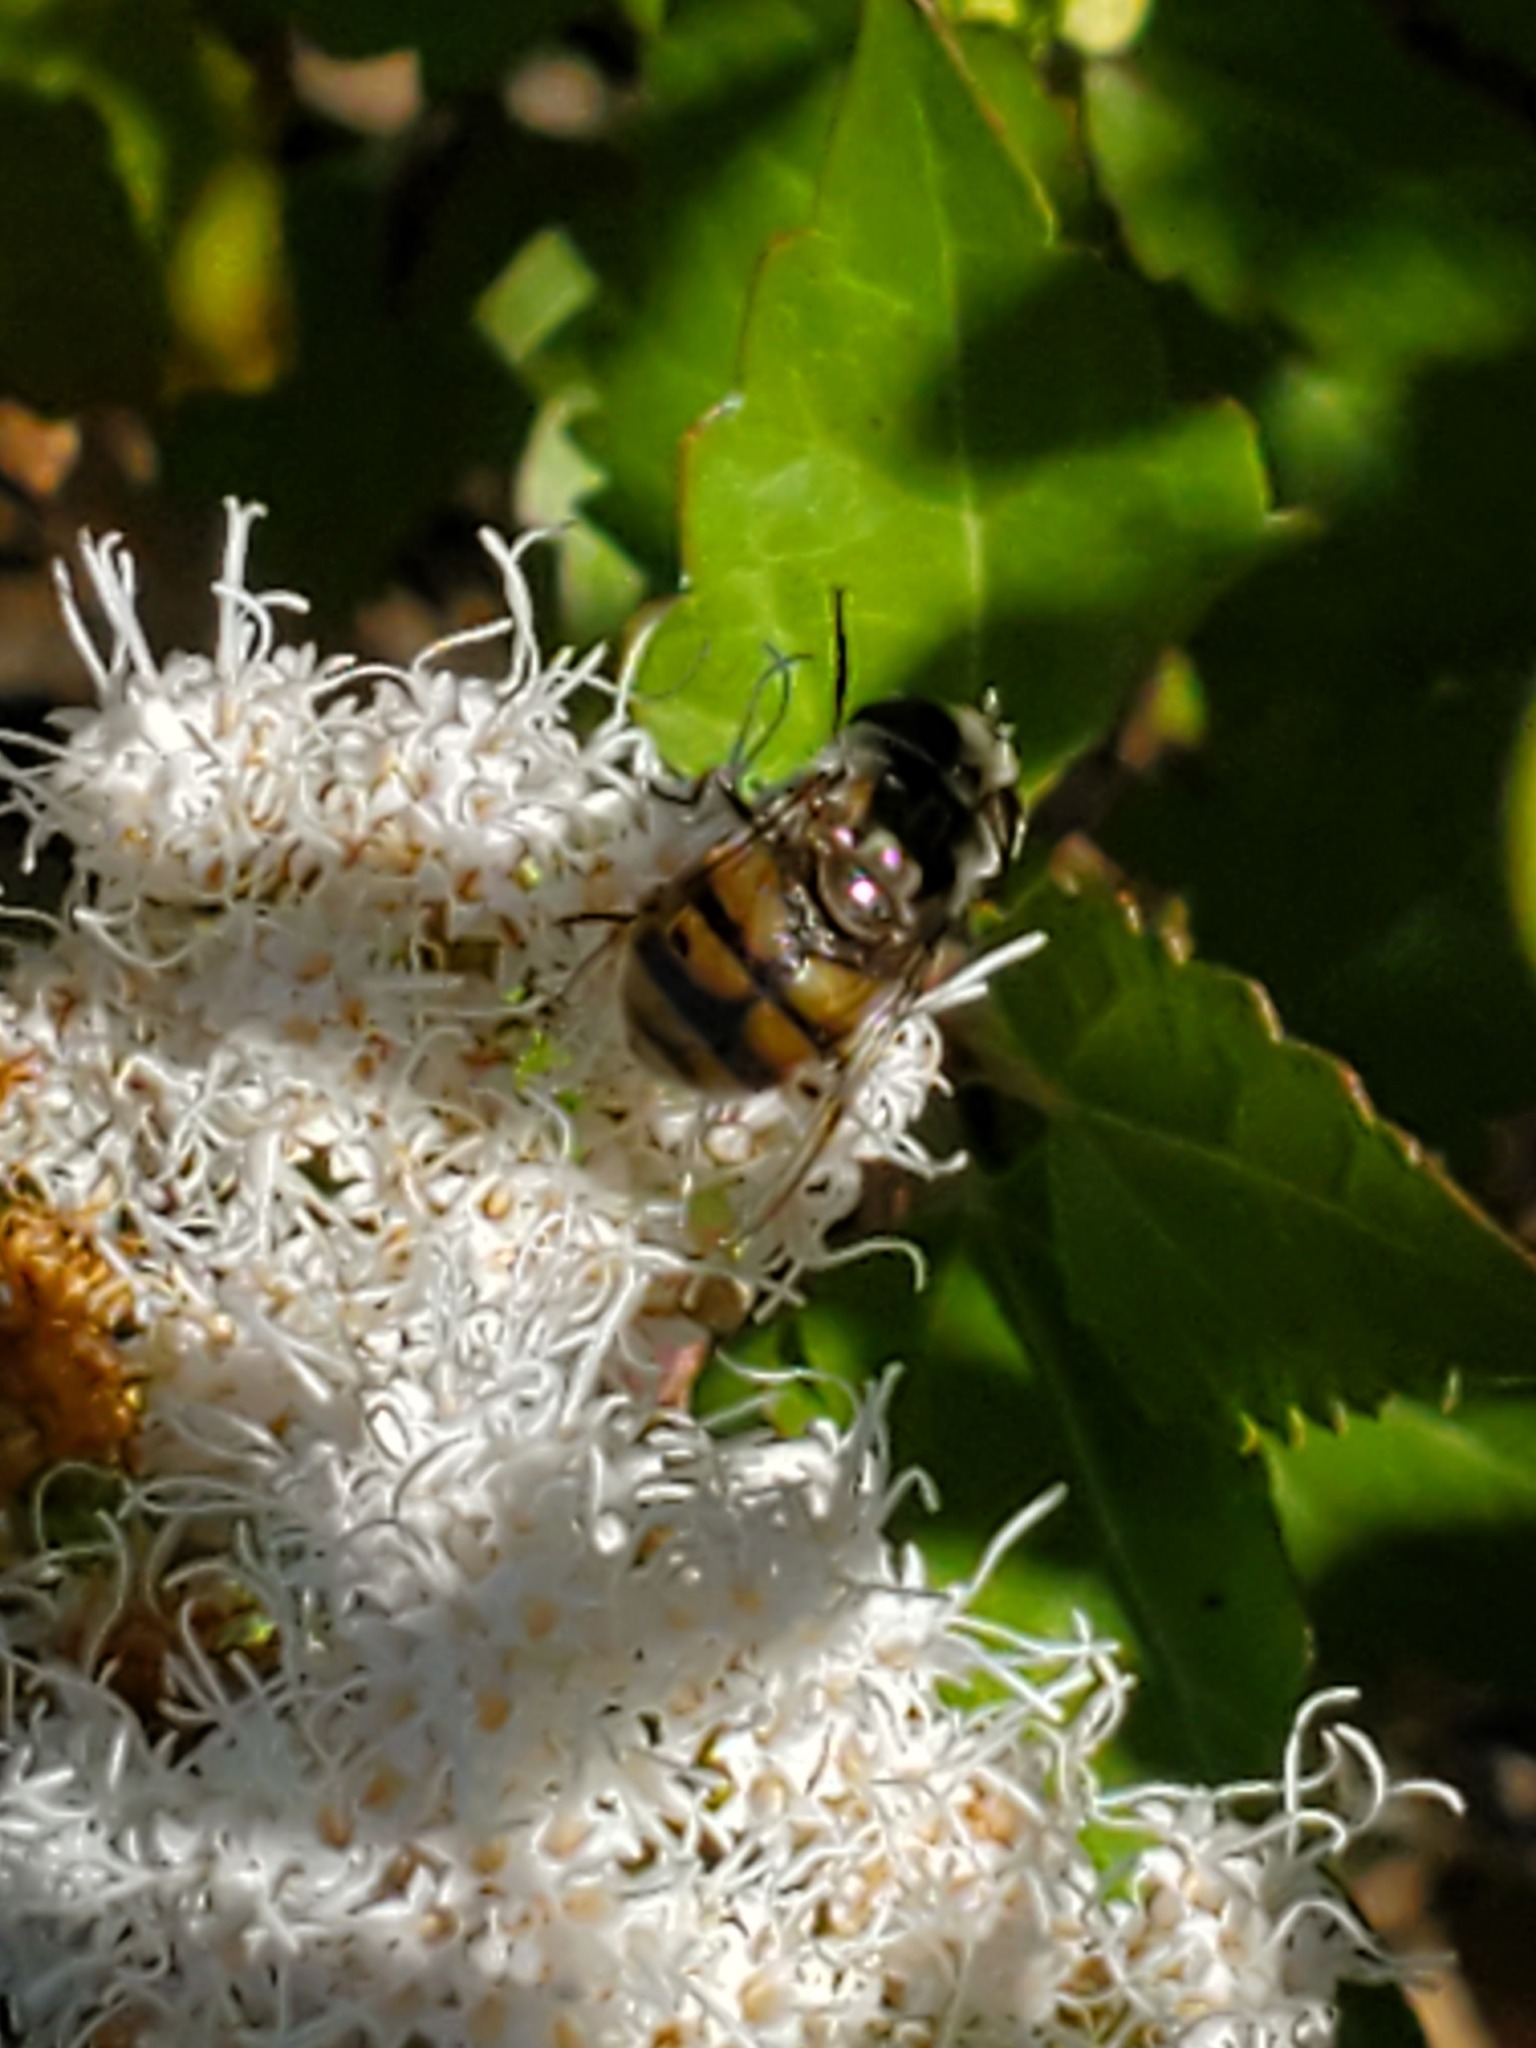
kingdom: Animalia
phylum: Arthropoda
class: Insecta
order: Diptera
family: Syrphidae
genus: Copestylum
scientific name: Copestylum avidum
